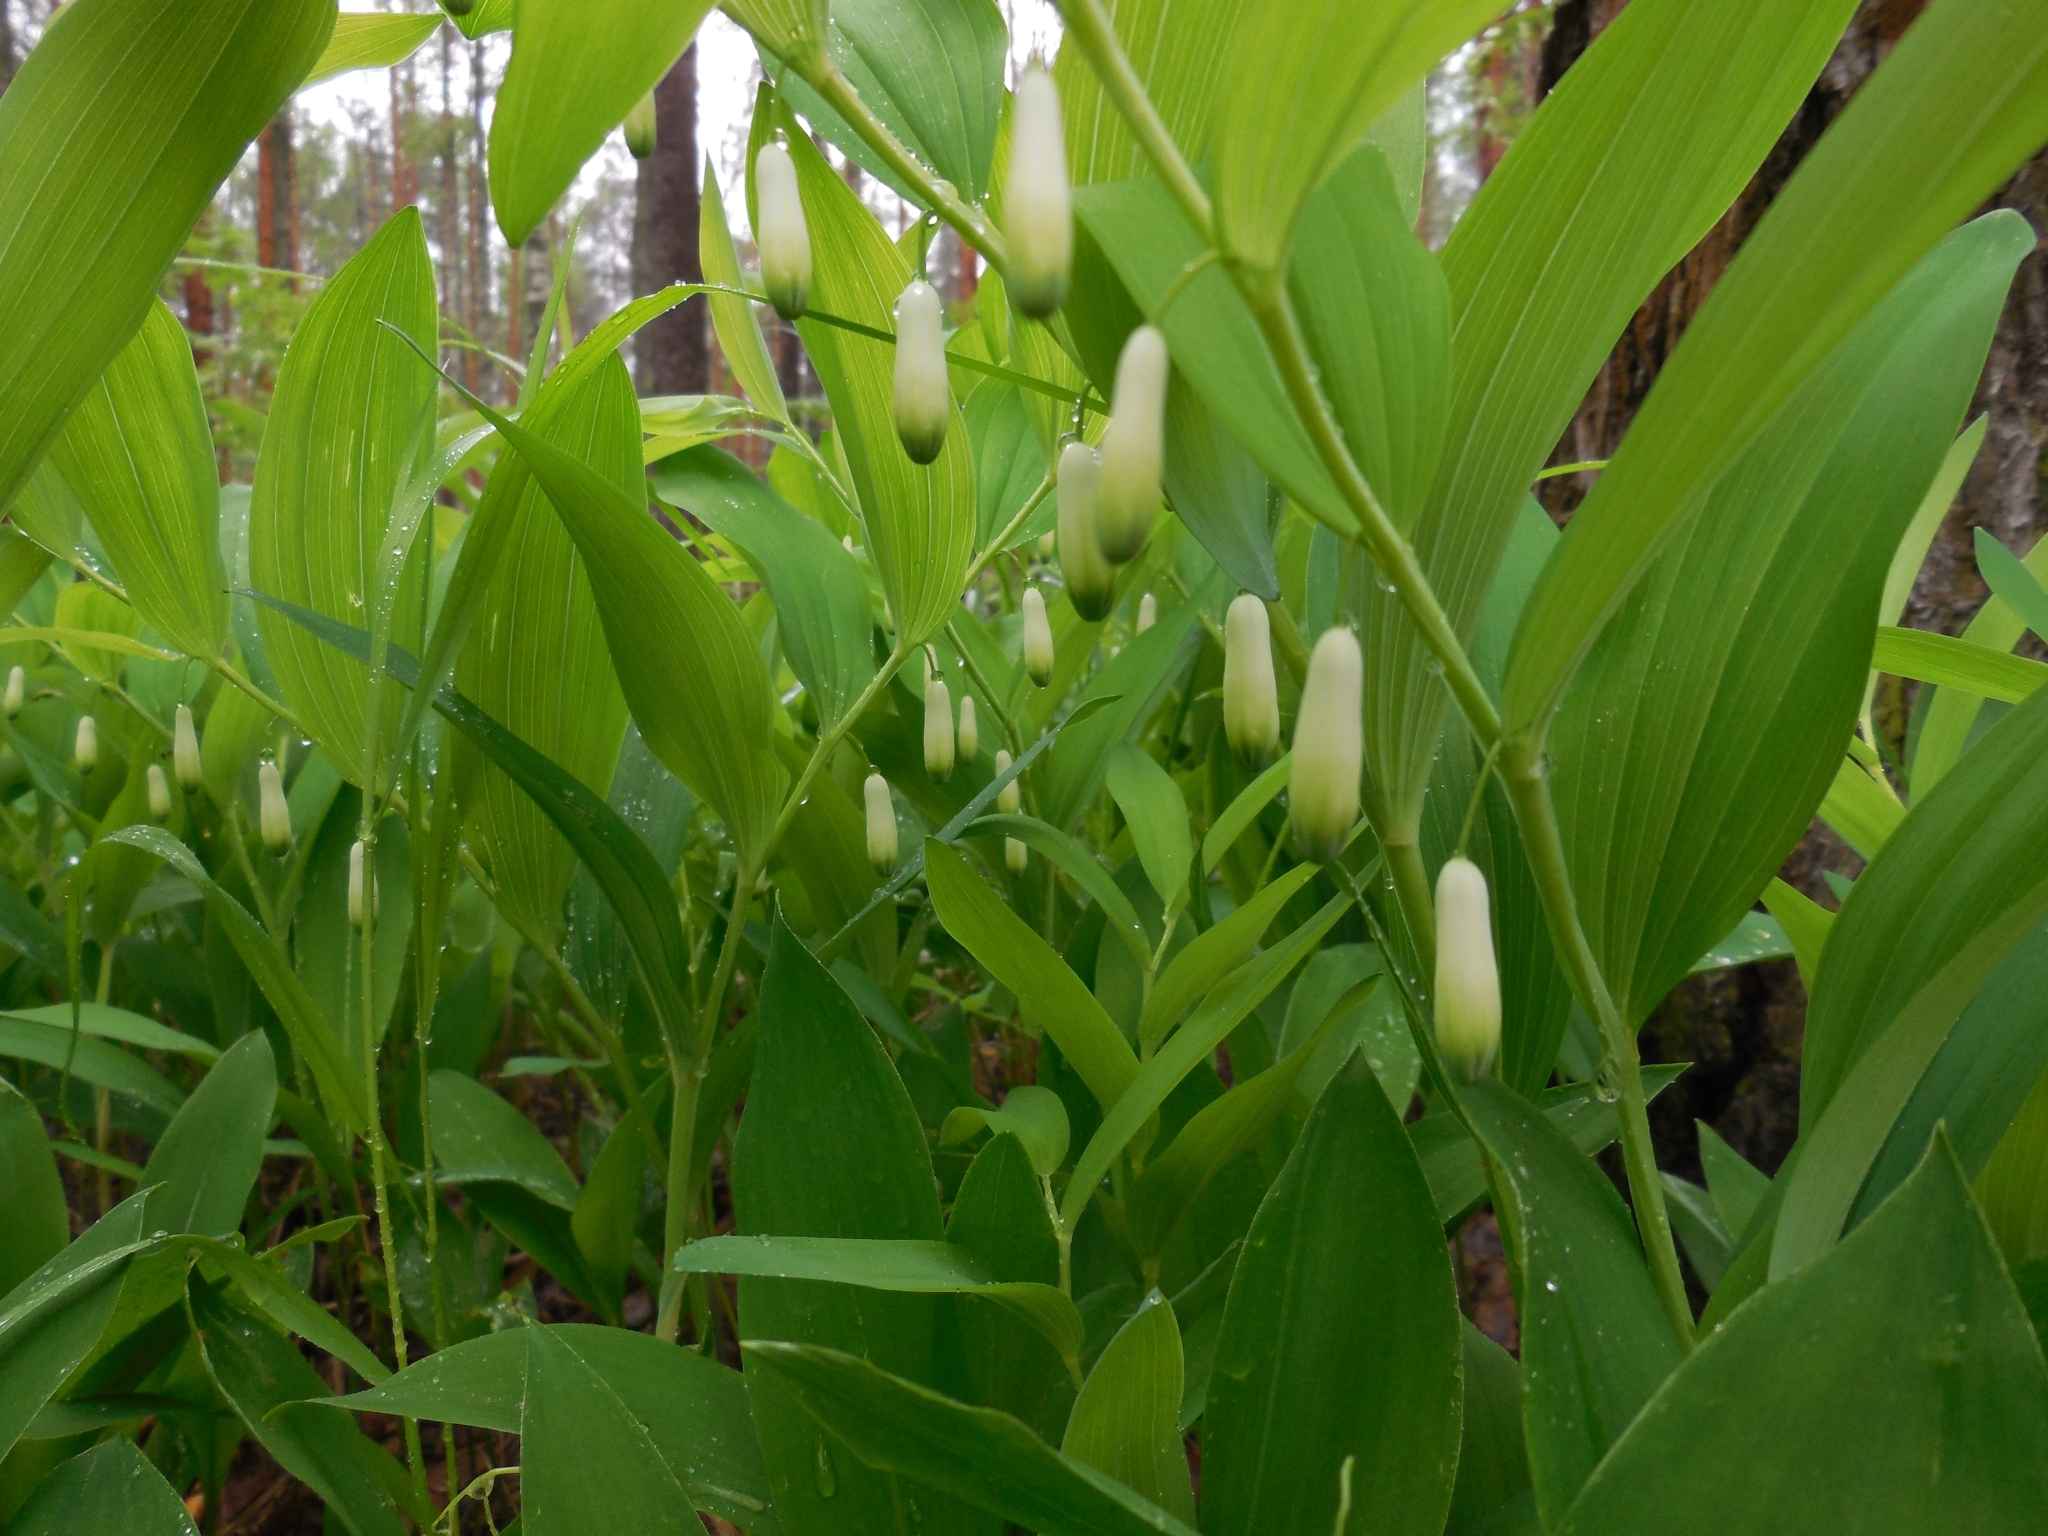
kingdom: Plantae
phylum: Tracheophyta
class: Liliopsida
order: Asparagales
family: Asparagaceae
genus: Polygonatum
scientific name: Polygonatum odoratum
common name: Angular solomon's-seal
